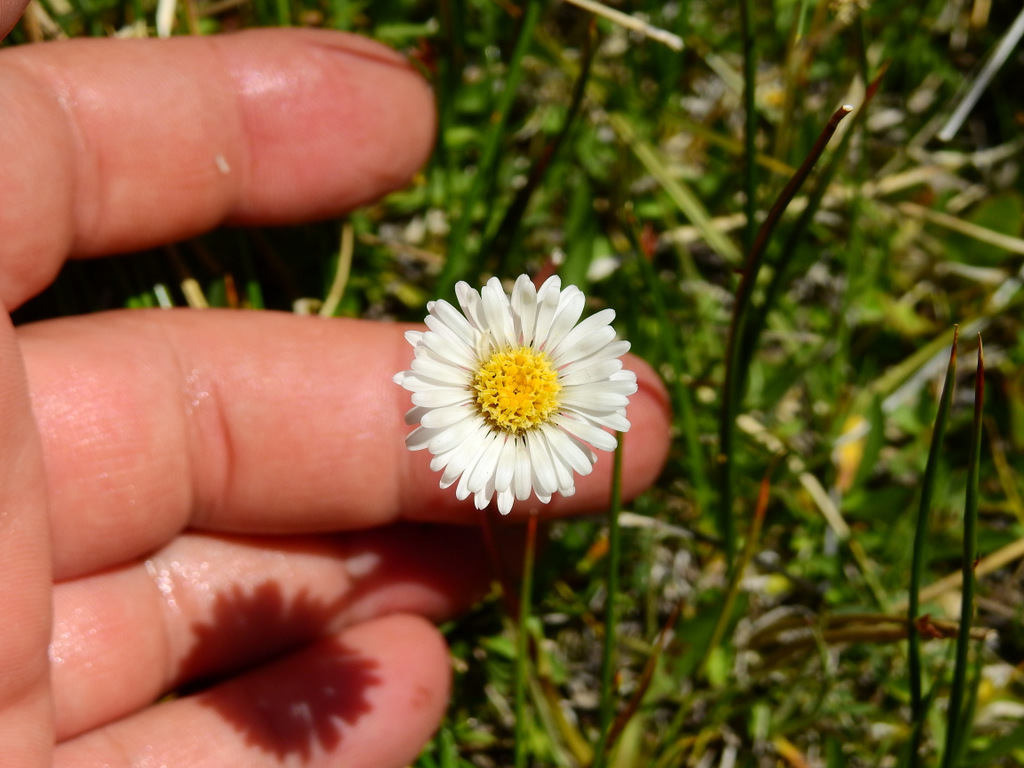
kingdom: Plantae
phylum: Tracheophyta
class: Magnoliopsida
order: Asterales
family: Asteraceae
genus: Erigeron
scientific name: Erigeron patagonicus
